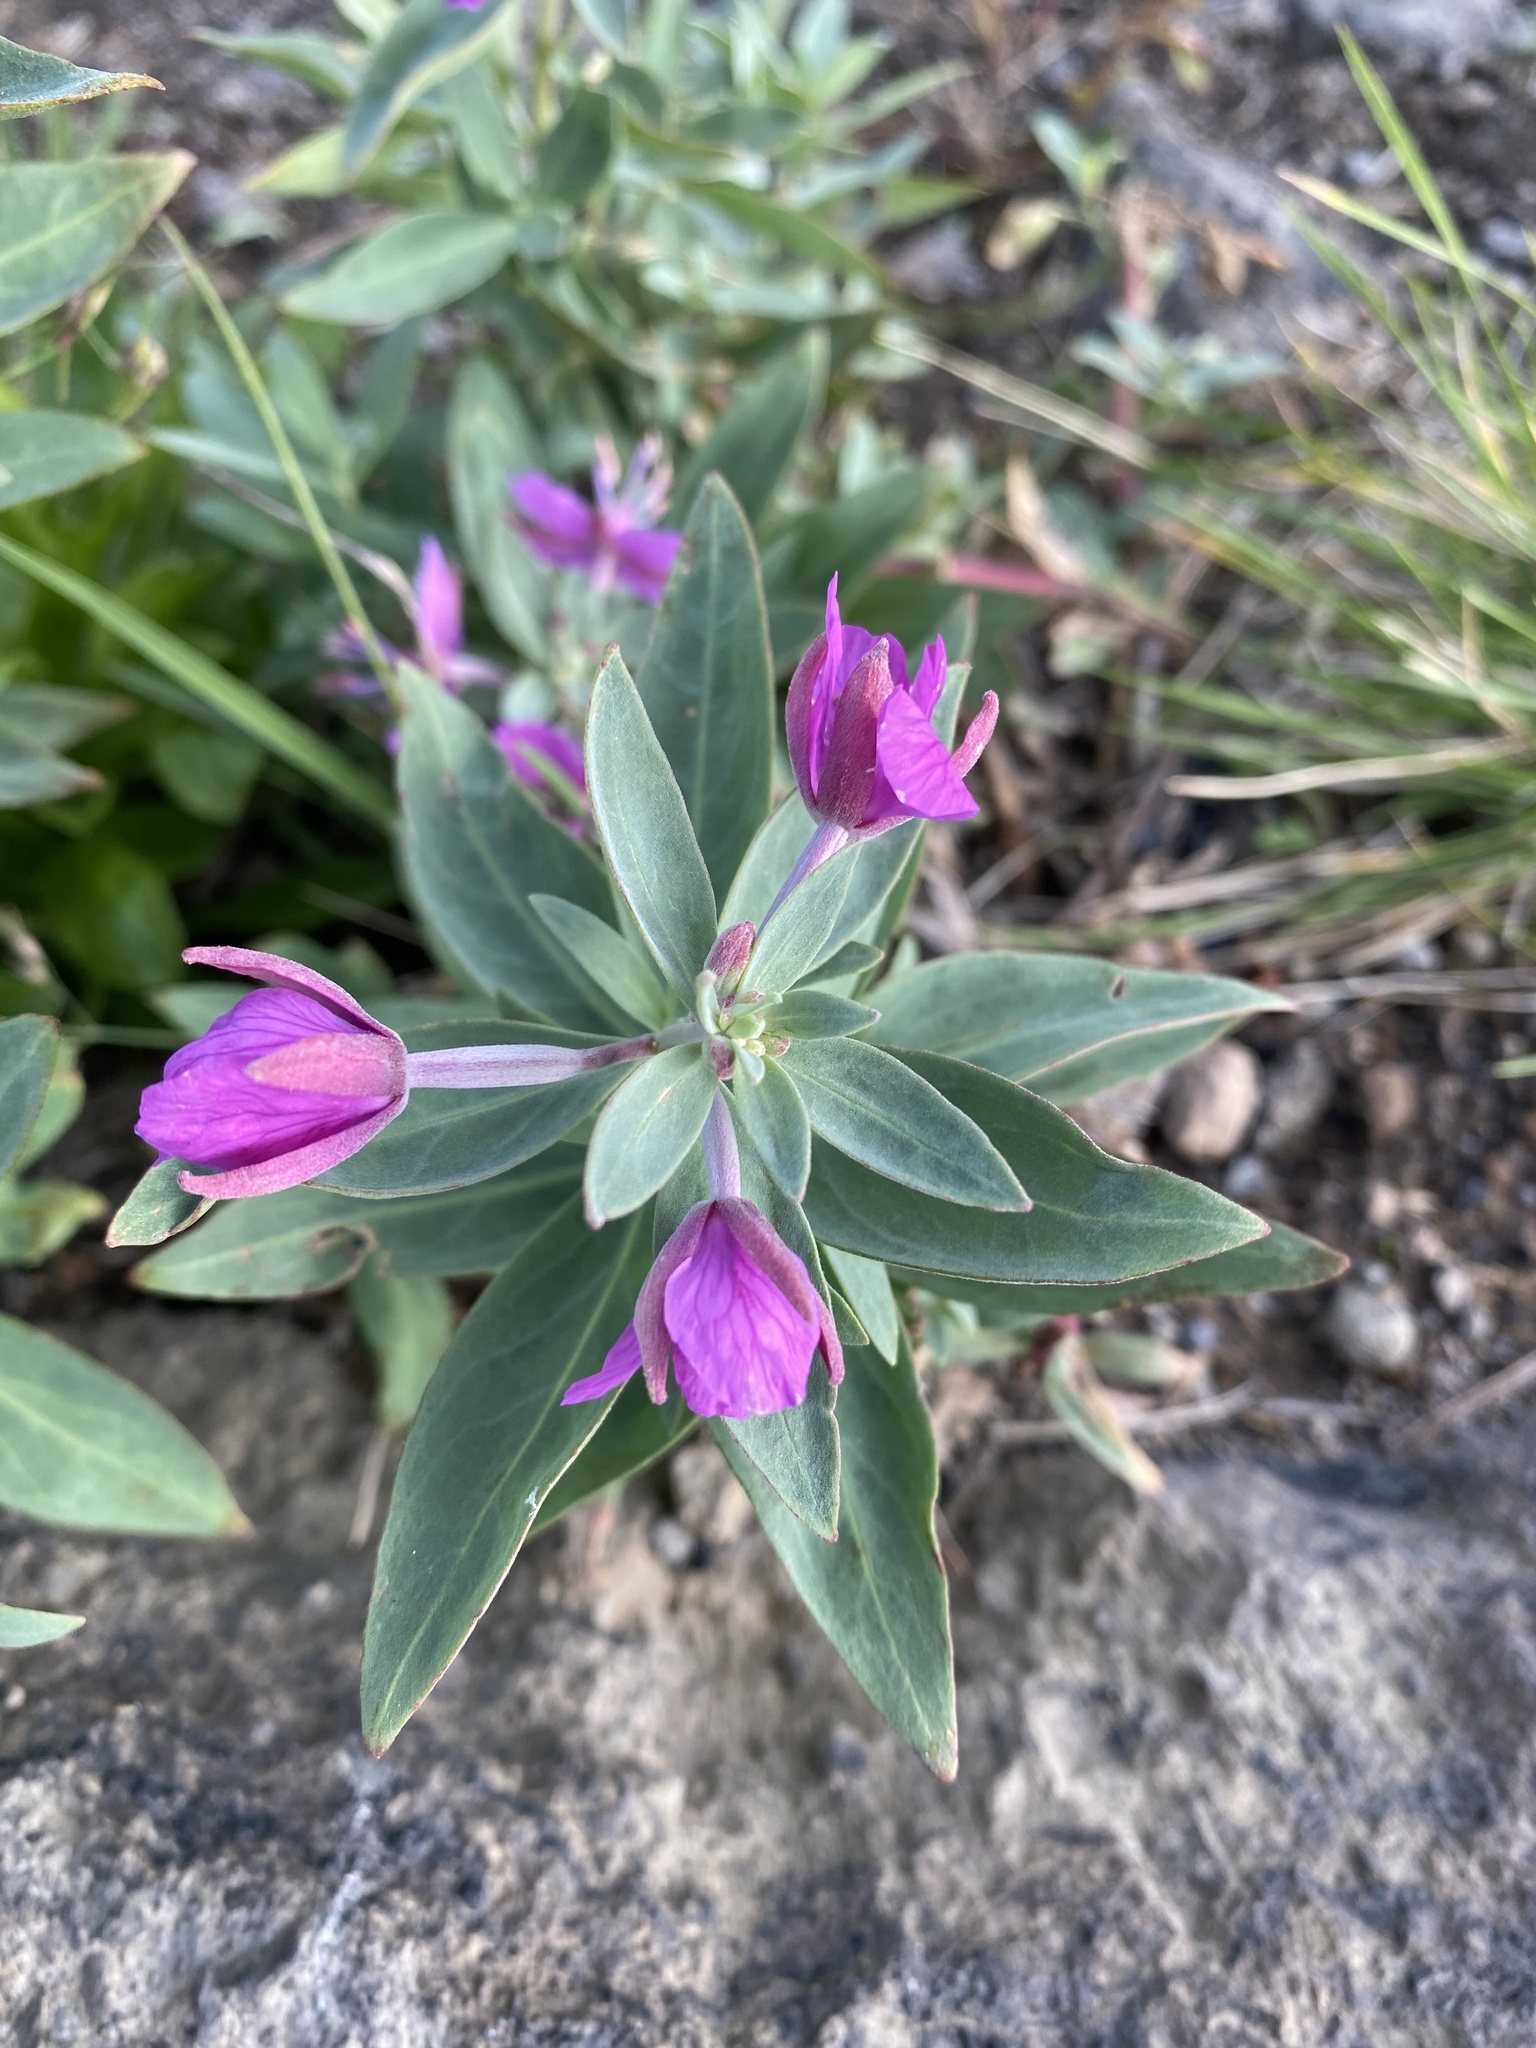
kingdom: Plantae
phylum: Tracheophyta
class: Magnoliopsida
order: Myrtales
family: Onagraceae
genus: Chamaenerion
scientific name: Chamaenerion latifolium
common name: Dwarf fireweed
